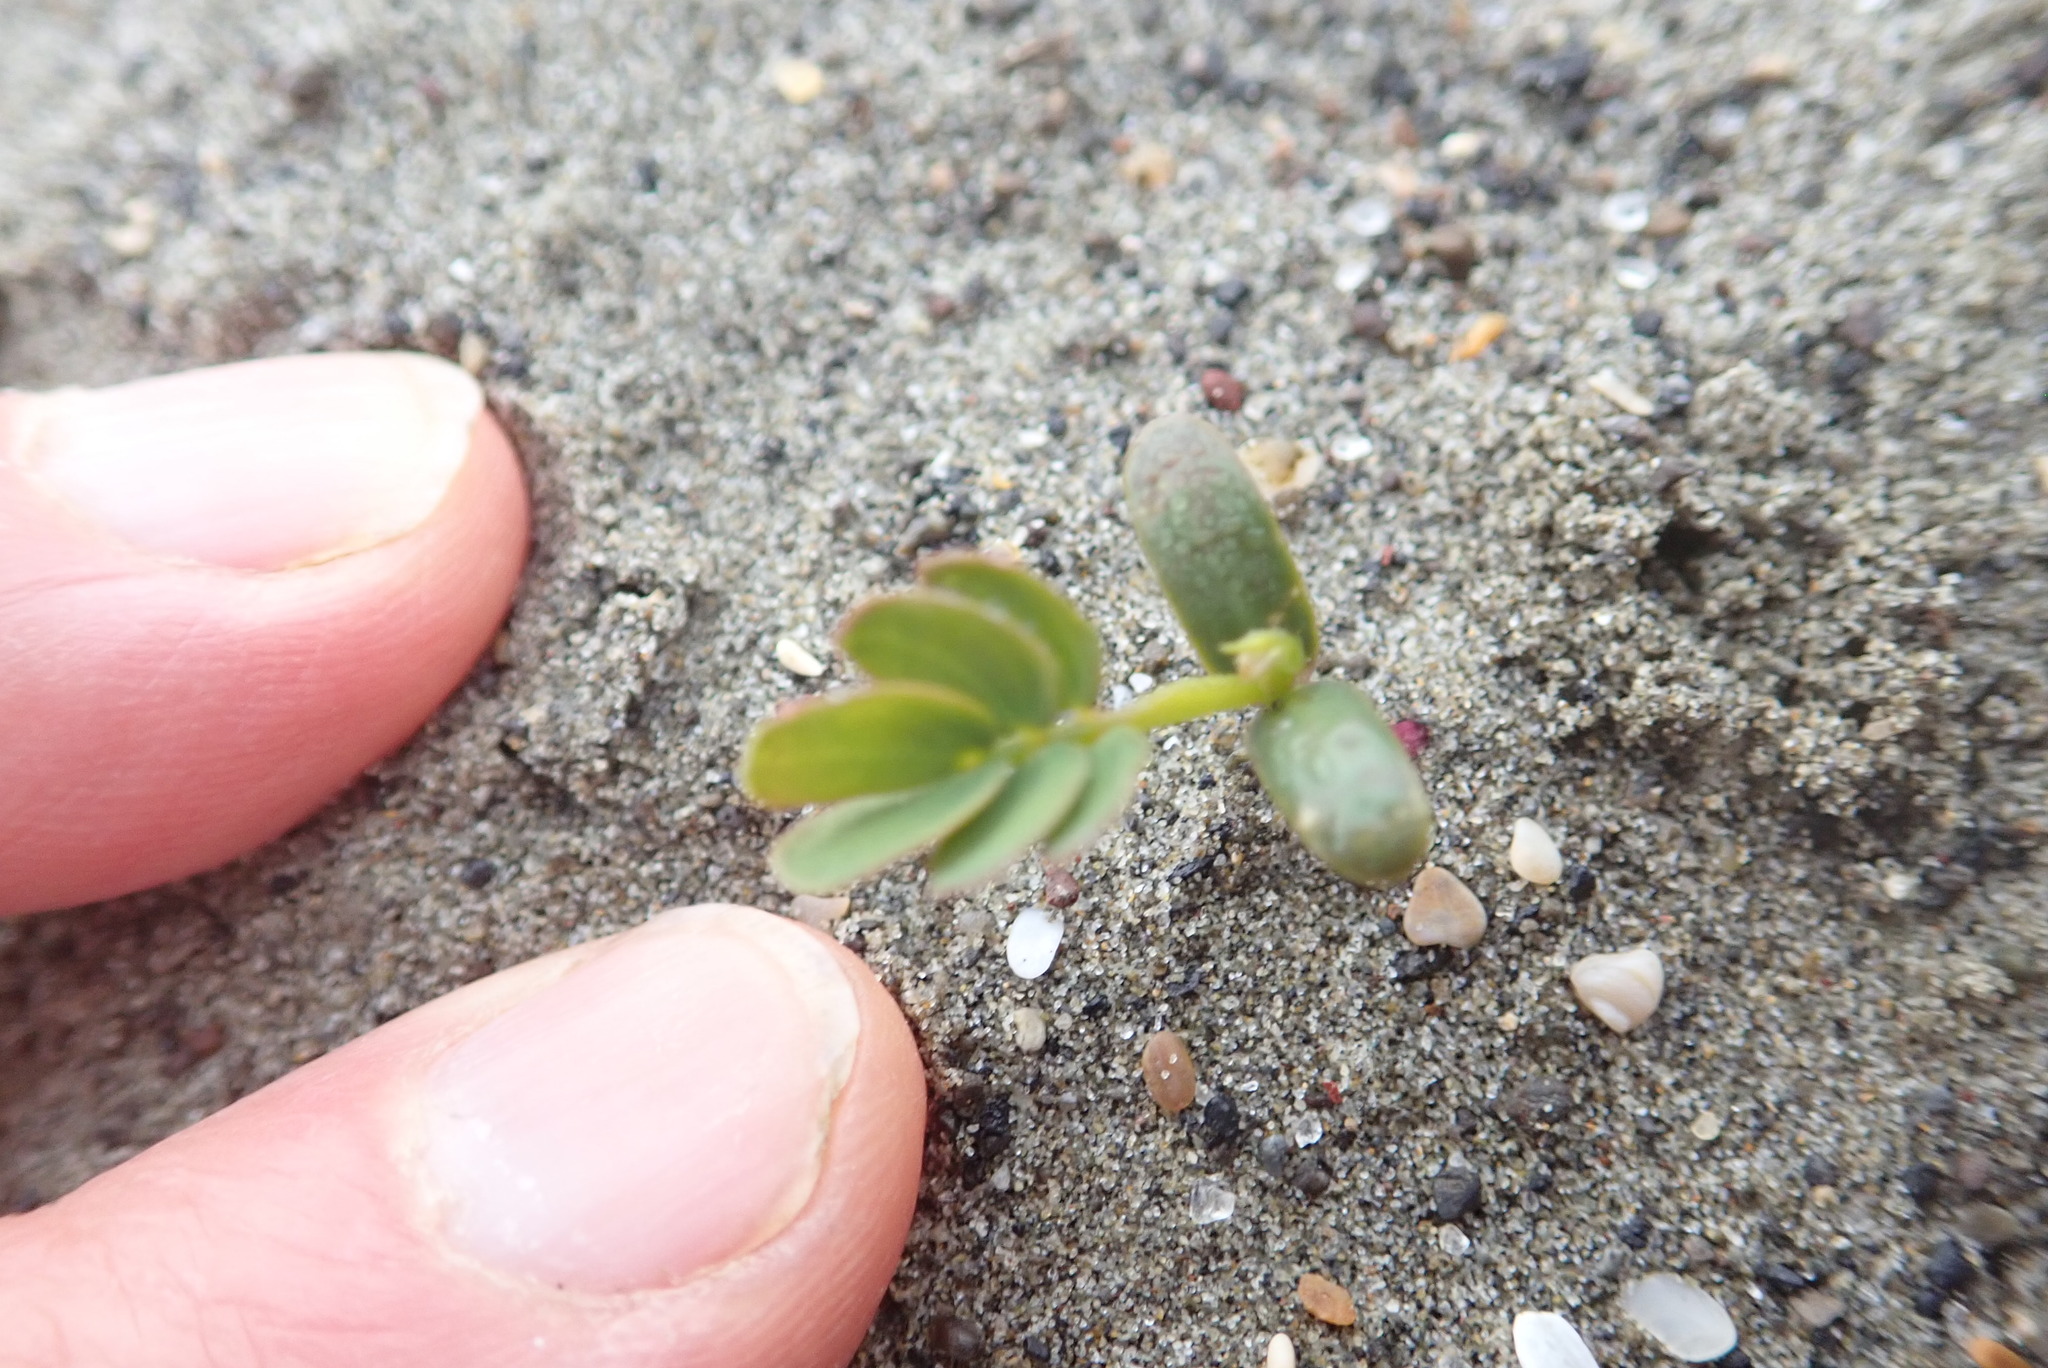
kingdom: Plantae
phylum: Tracheophyta
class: Magnoliopsida
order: Fabales
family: Fabaceae
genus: Acacia
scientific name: Acacia longifolia
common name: Sydney golden wattle
